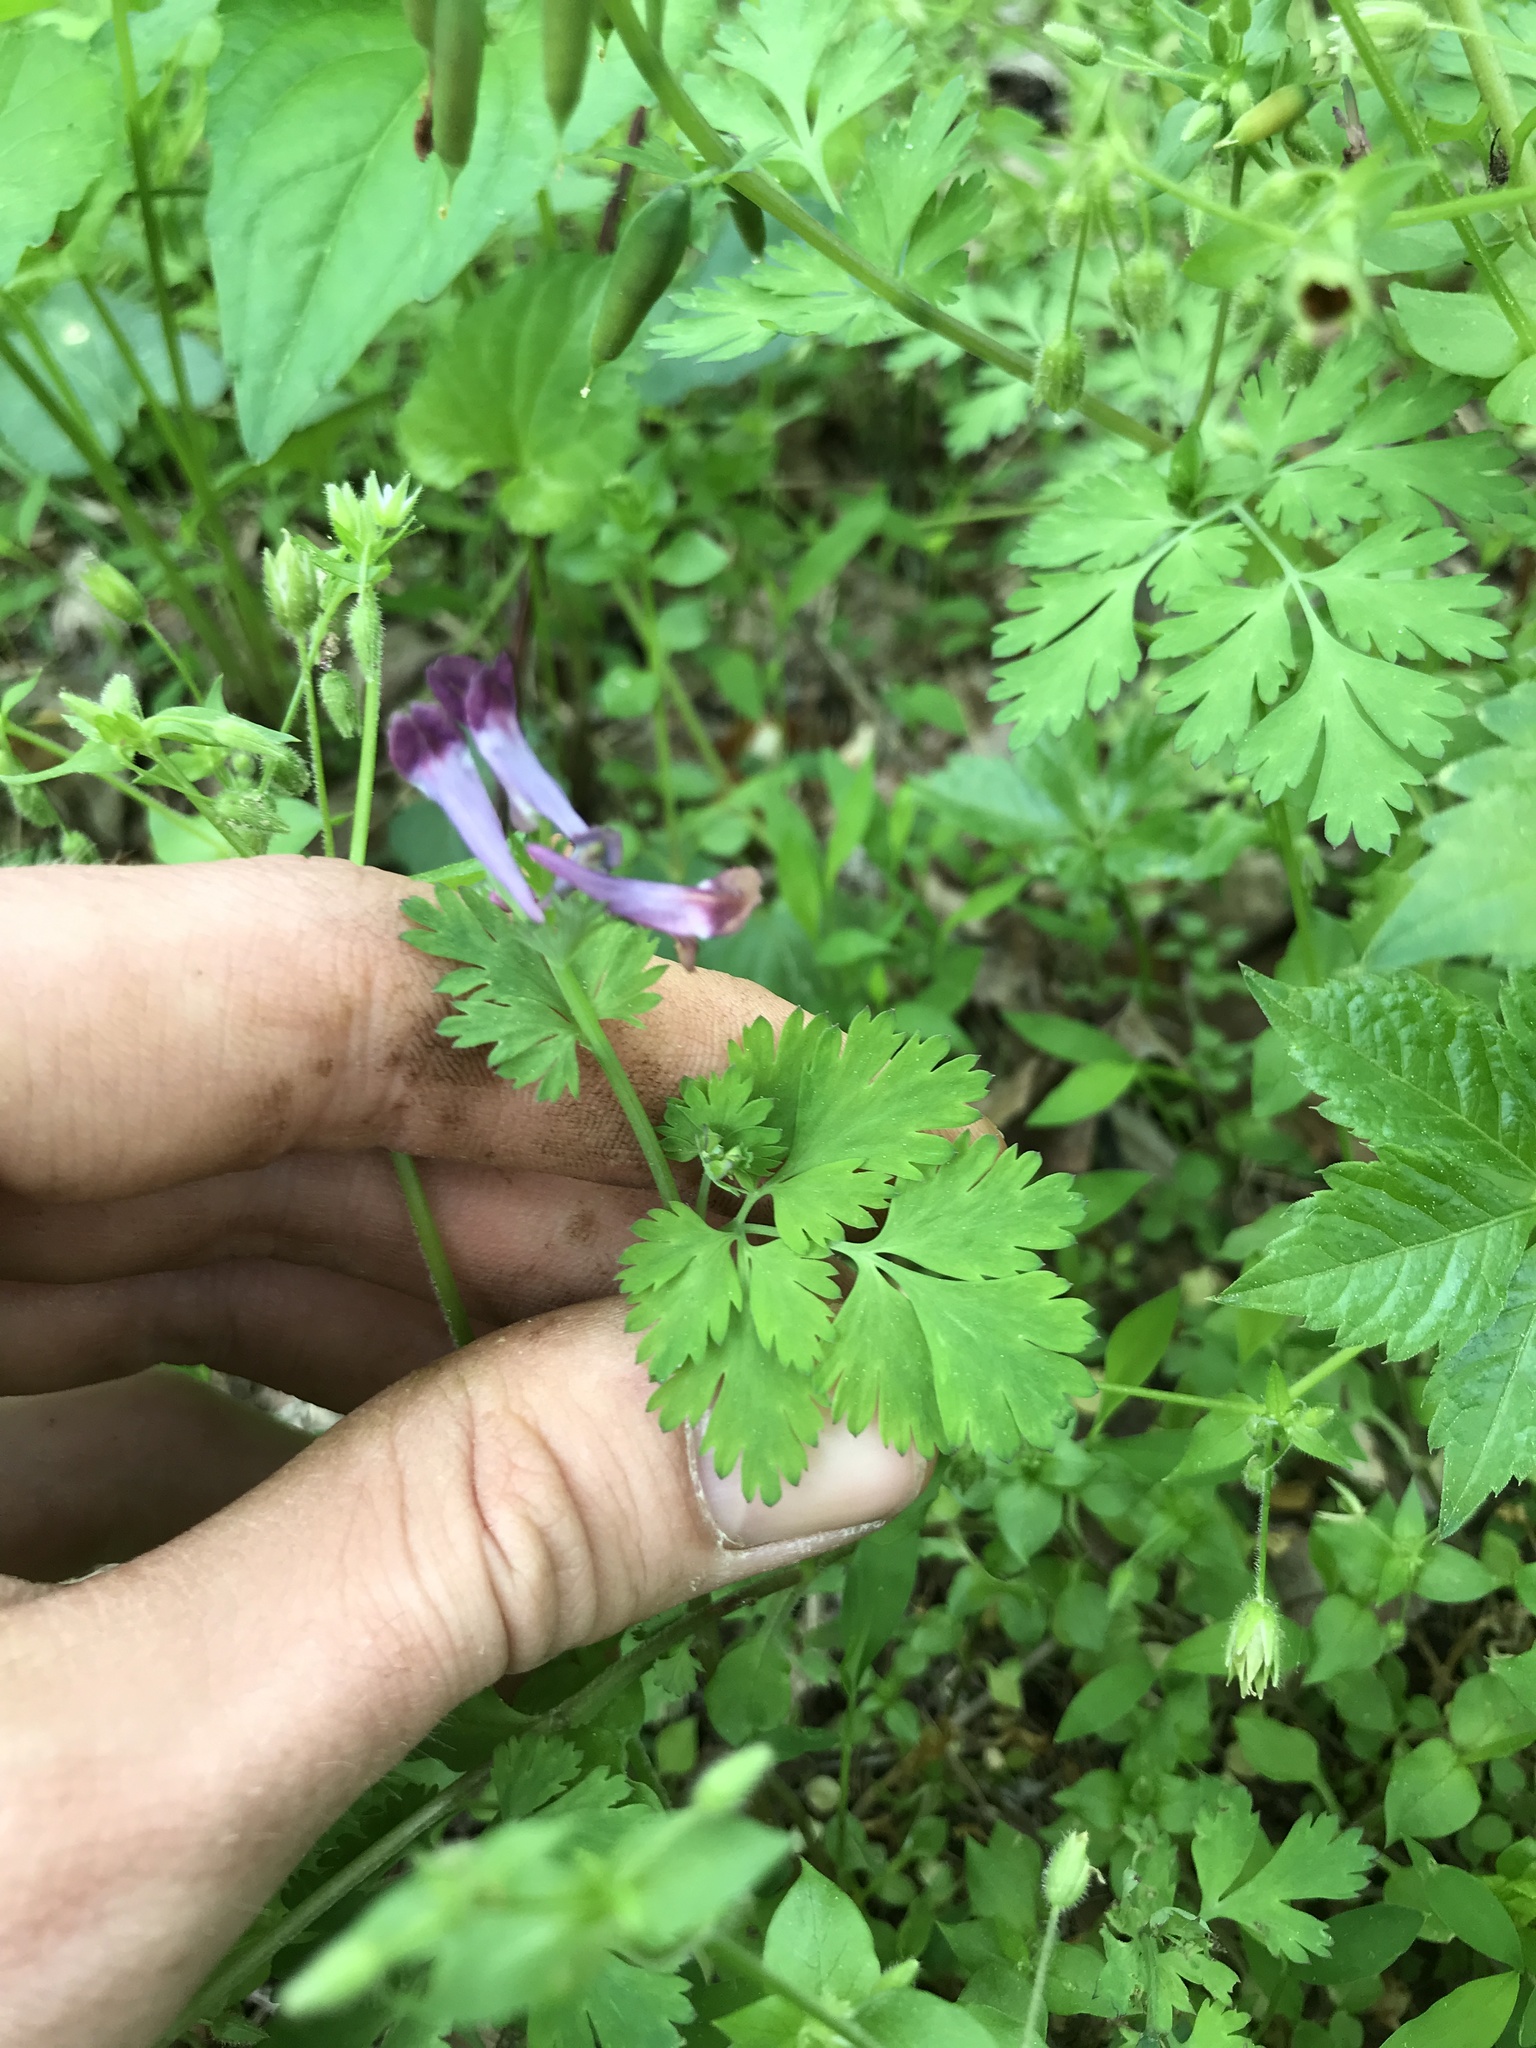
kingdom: Plantae
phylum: Tracheophyta
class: Magnoliopsida
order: Ranunculales
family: Papaveraceae
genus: Corydalis
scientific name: Corydalis incisa
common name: Incised fumewort
